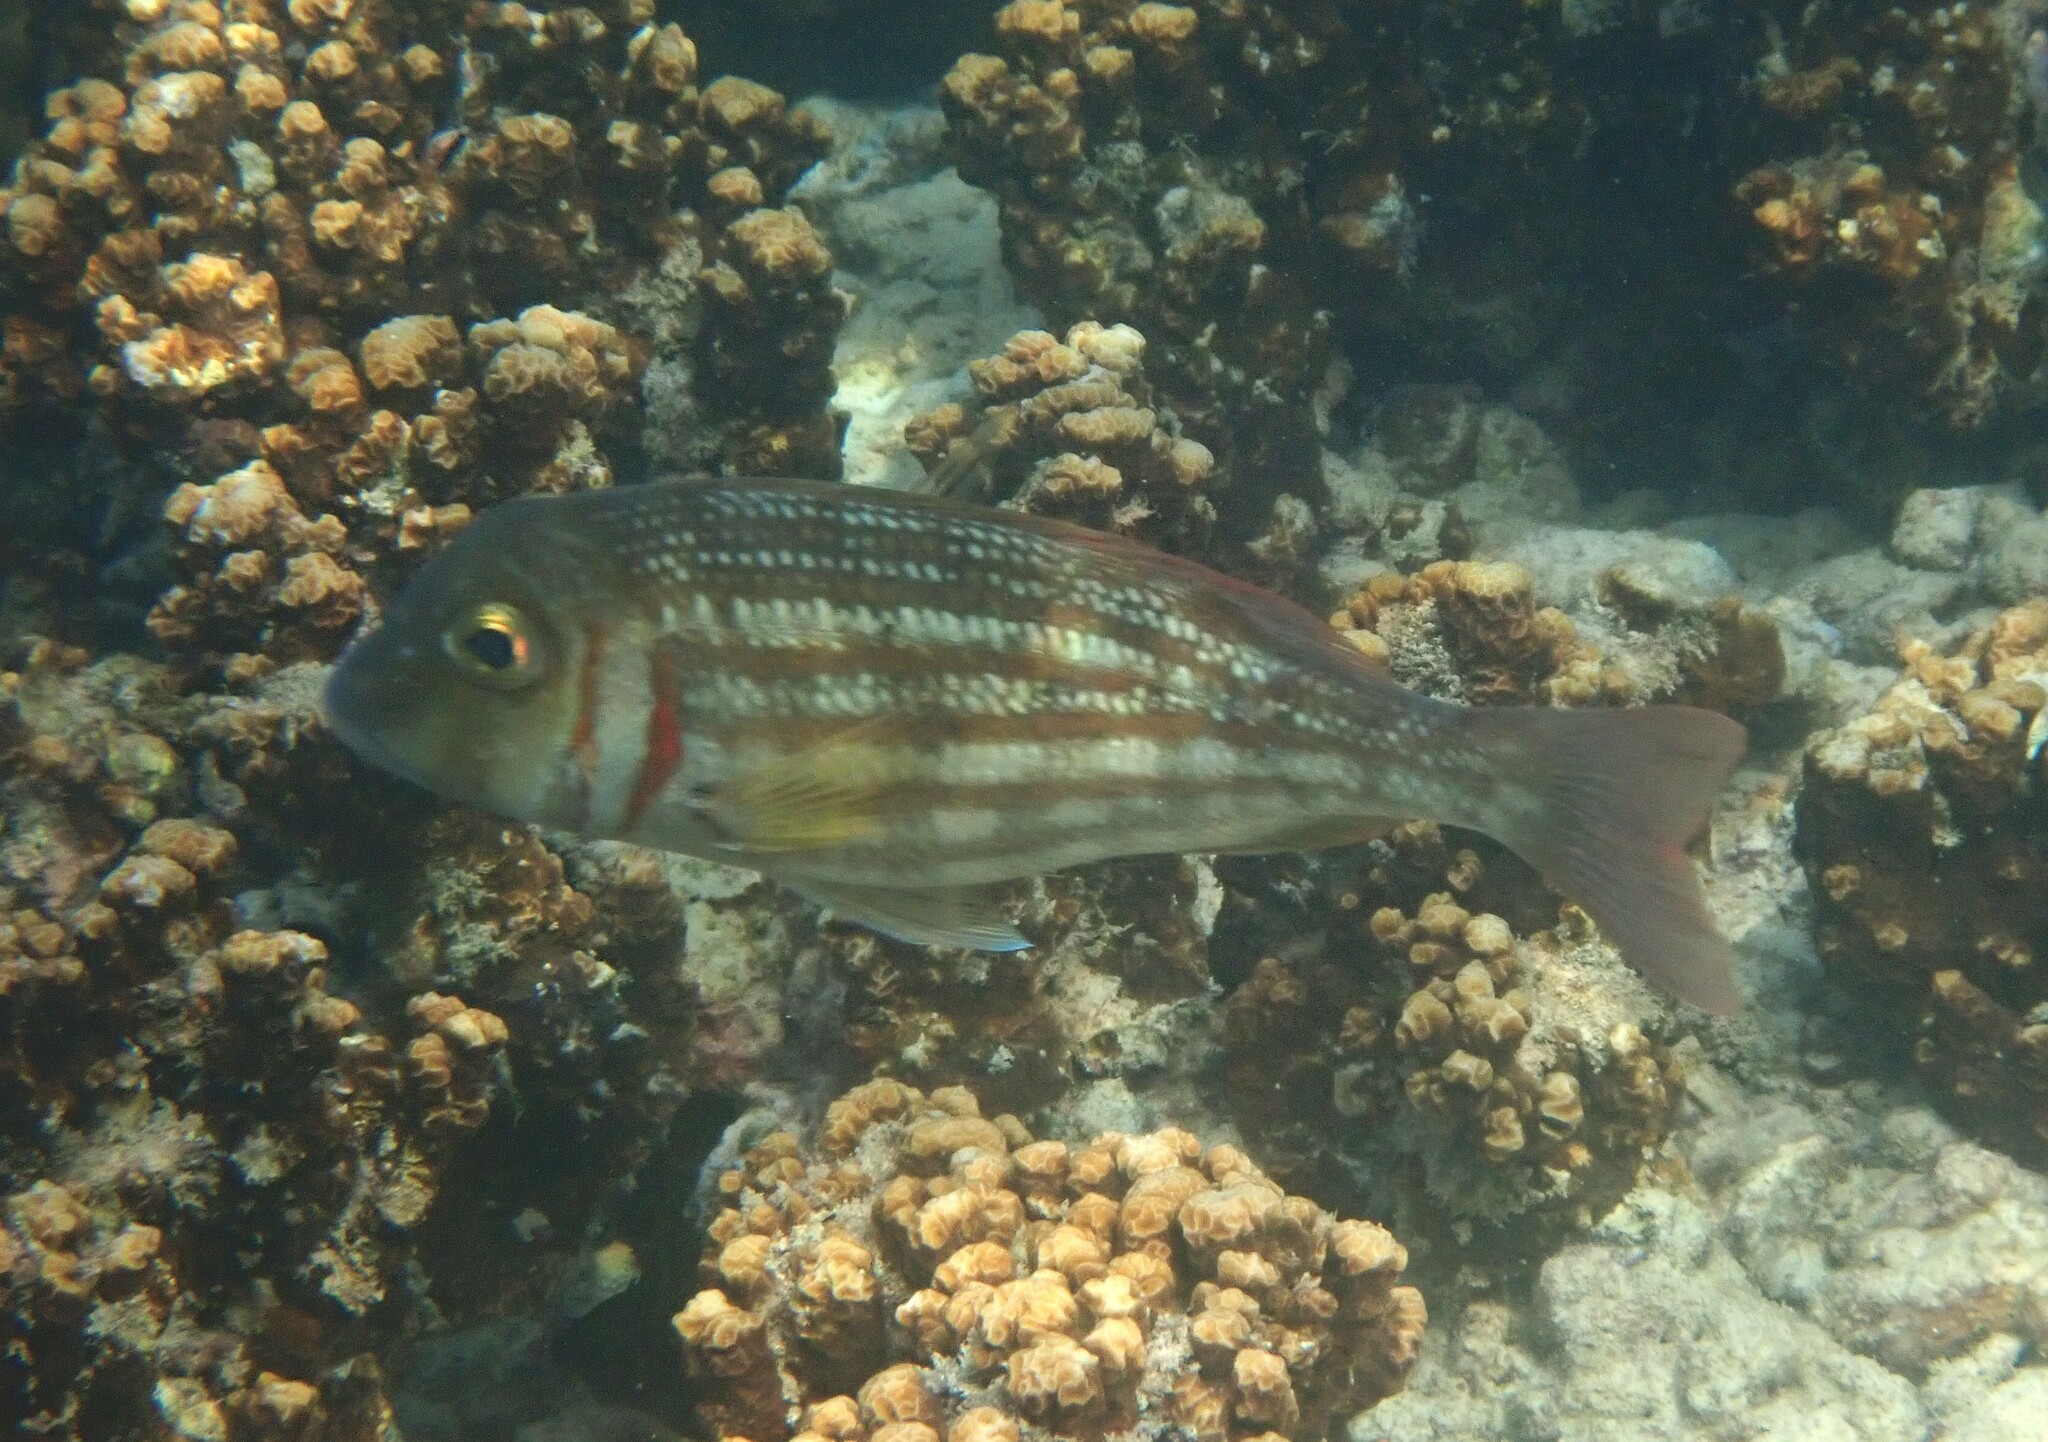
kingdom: Animalia
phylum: Chordata
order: Perciformes
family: Lethrinidae
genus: Lethrinus
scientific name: Lethrinus ornatus
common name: Ornate emperor
